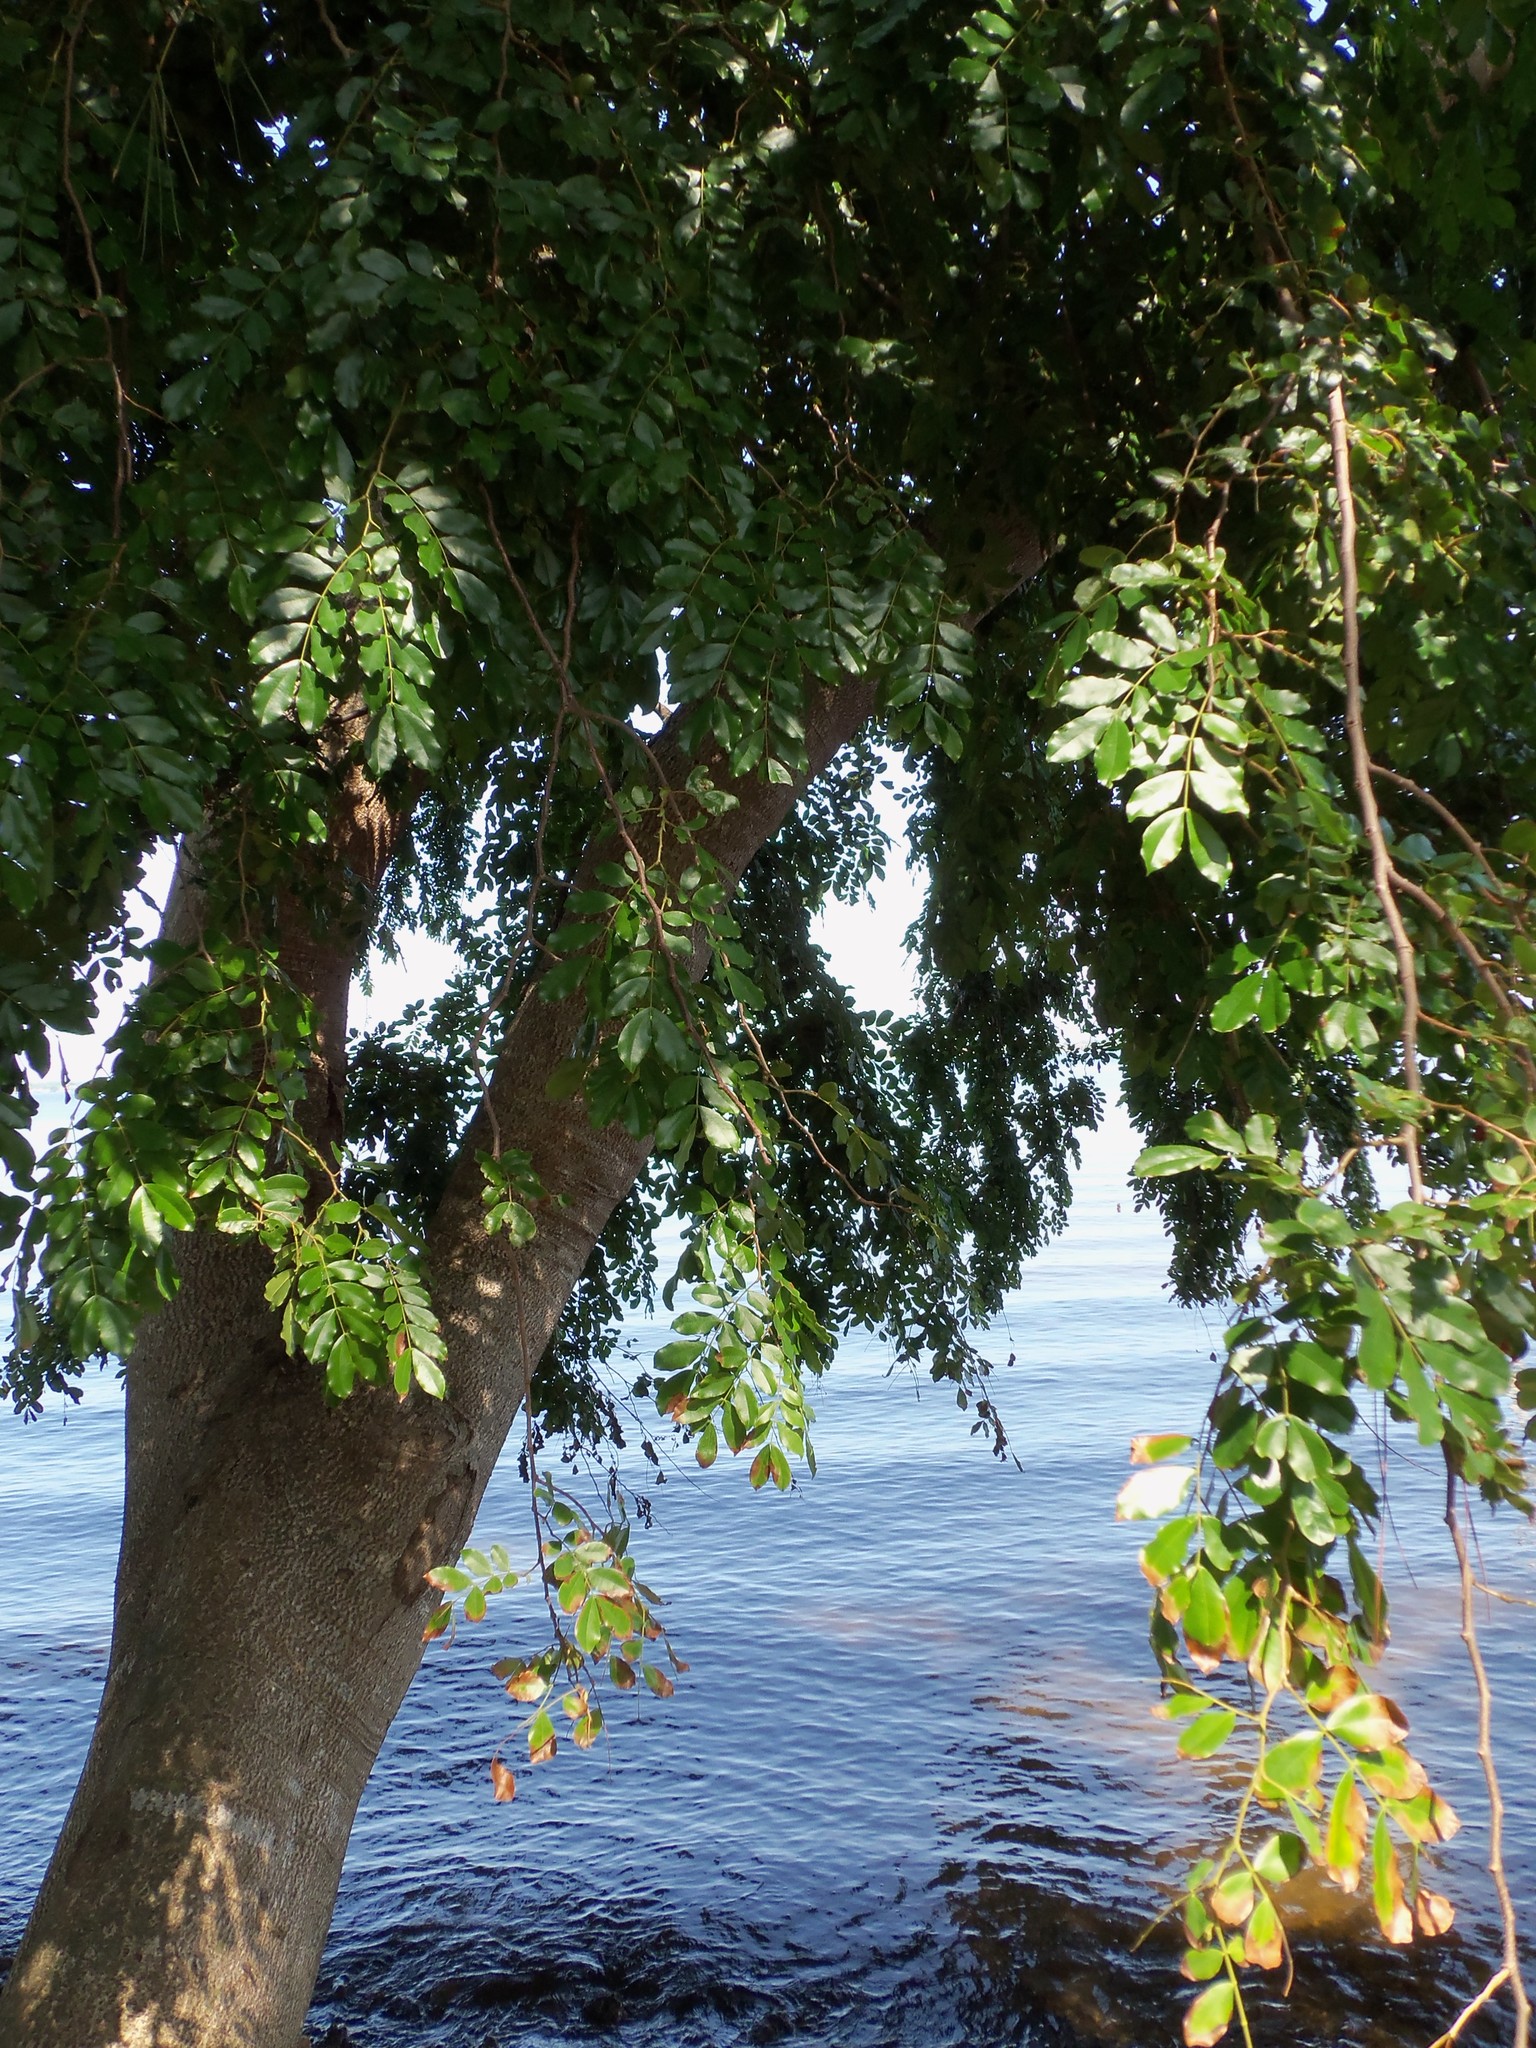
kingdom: Plantae
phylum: Tracheophyta
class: Magnoliopsida
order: Fabales
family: Fabaceae
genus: Pongamia
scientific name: Pongamia pinnata
